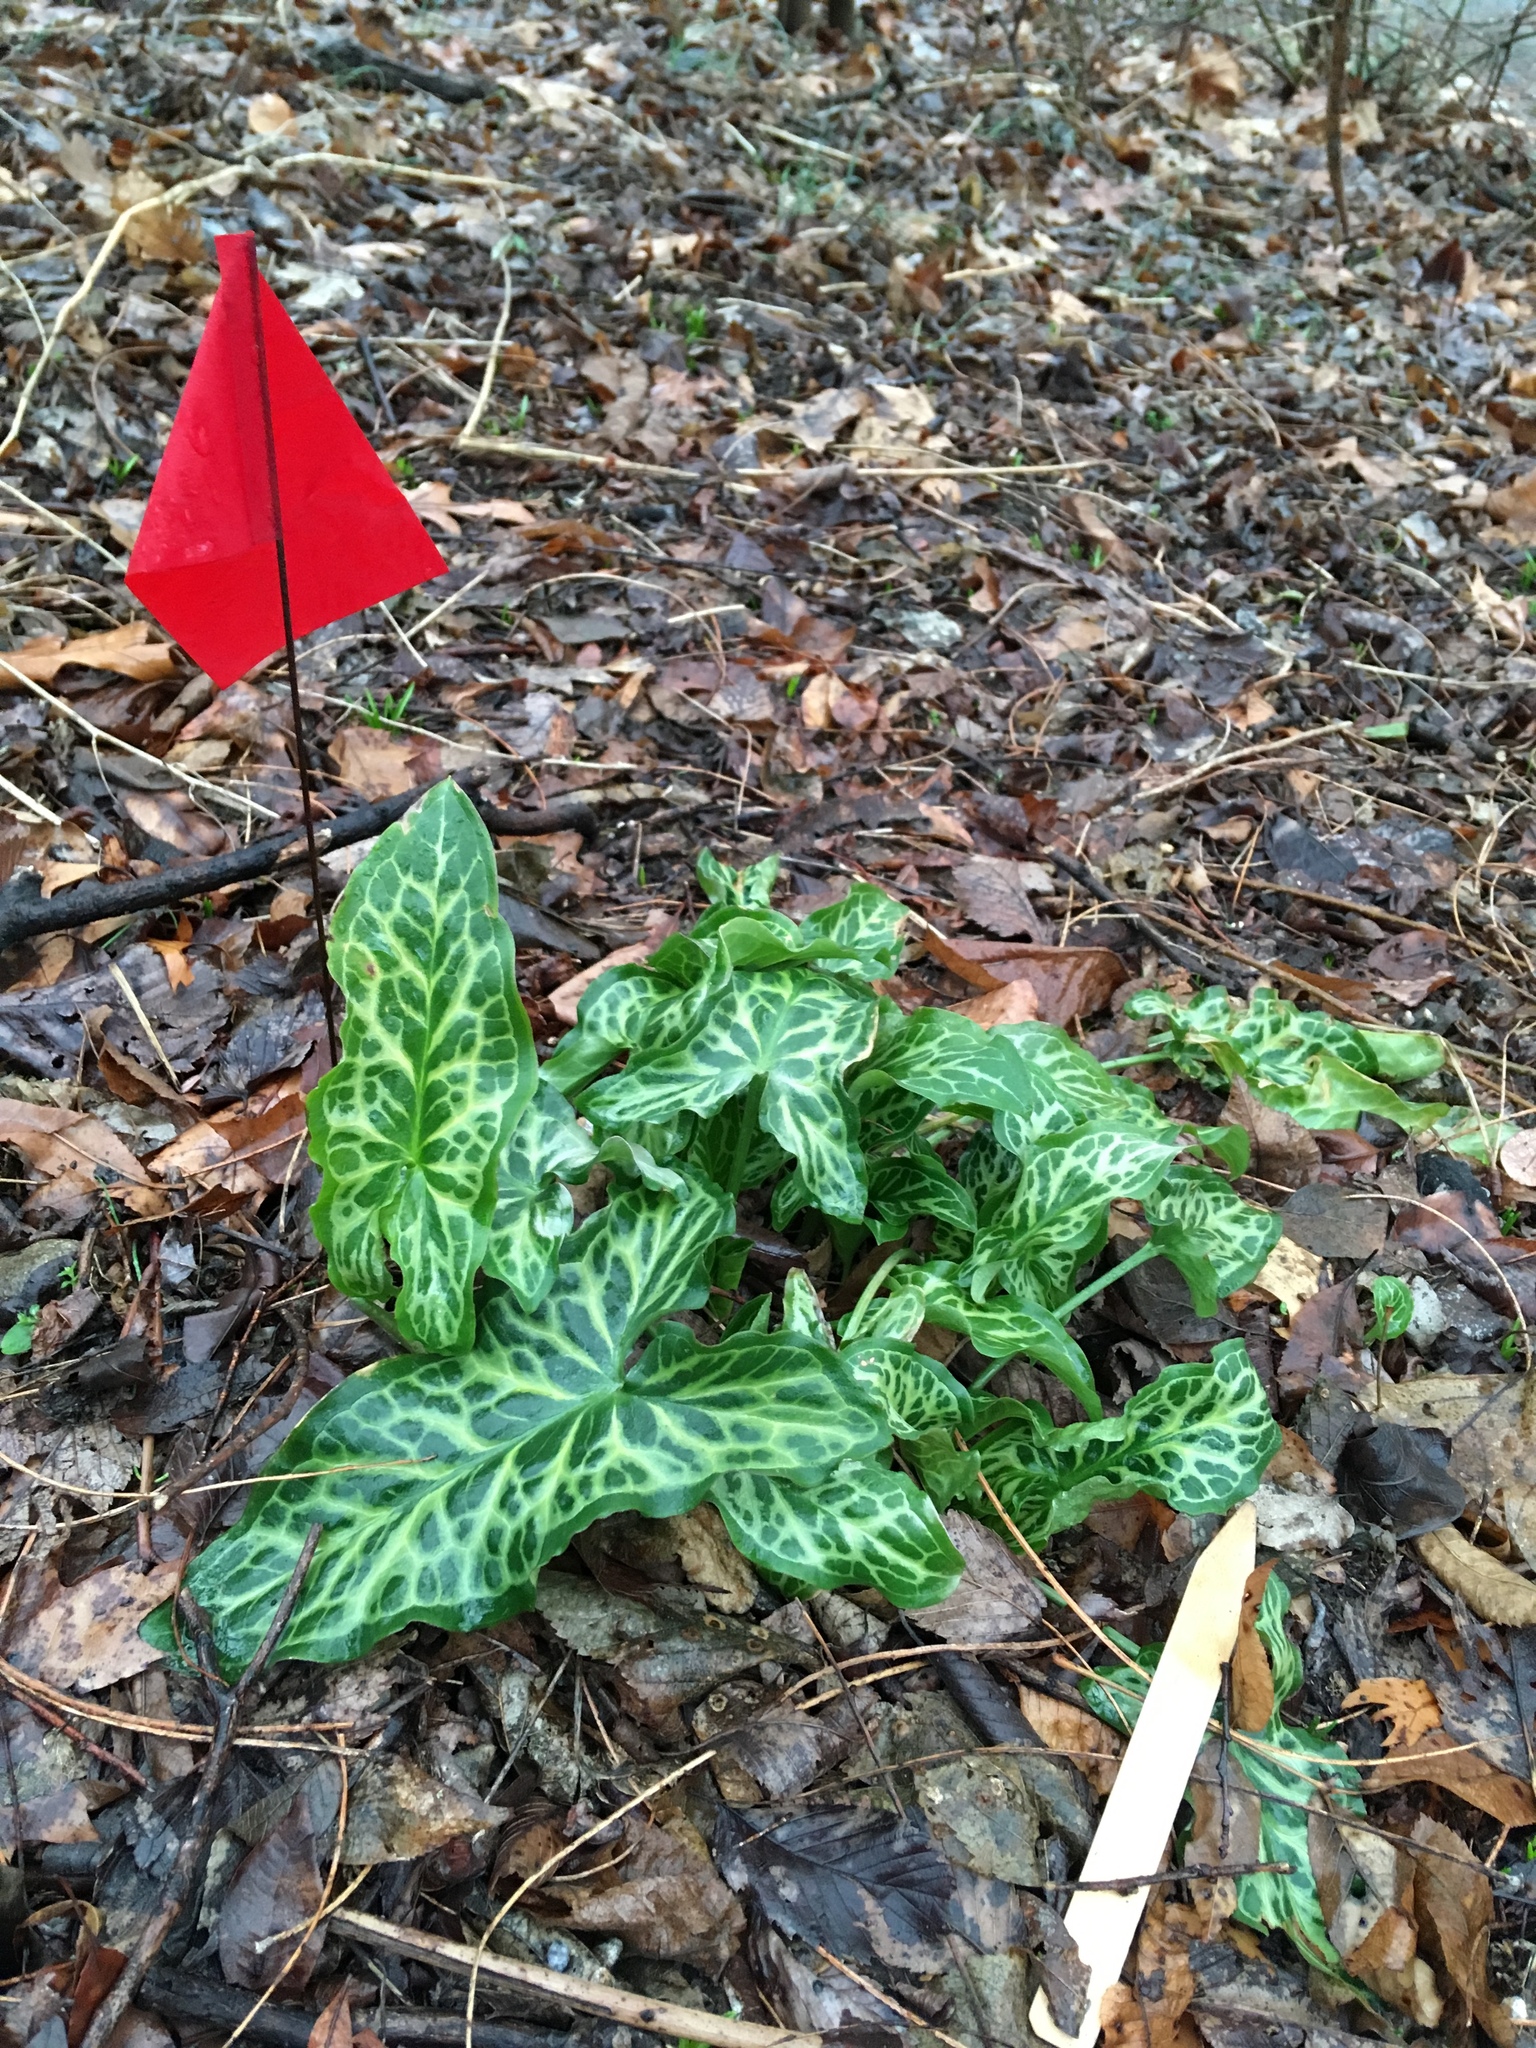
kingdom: Plantae
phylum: Tracheophyta
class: Liliopsida
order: Alismatales
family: Araceae
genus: Arum
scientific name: Arum italicum
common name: Italian lords-and-ladies
